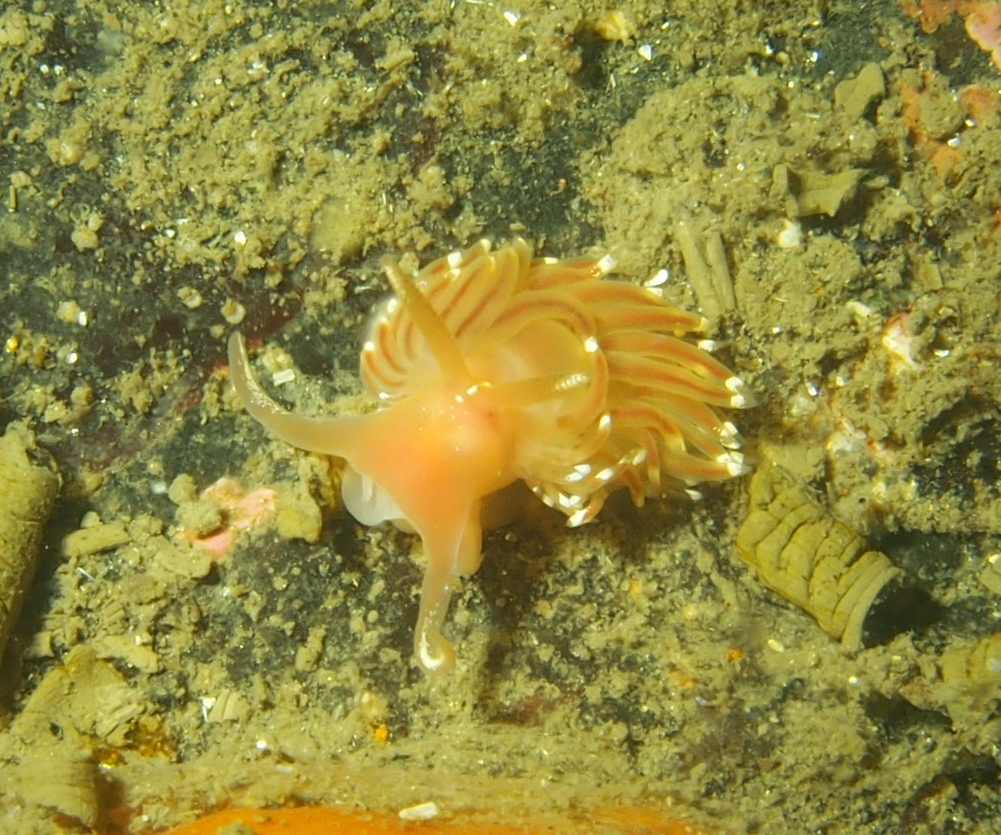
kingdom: Animalia
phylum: Mollusca
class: Gastropoda
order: Nudibranchia
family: Facelinidae
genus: Facelina
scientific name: Facelina bostoniensis
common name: Boston facelina
